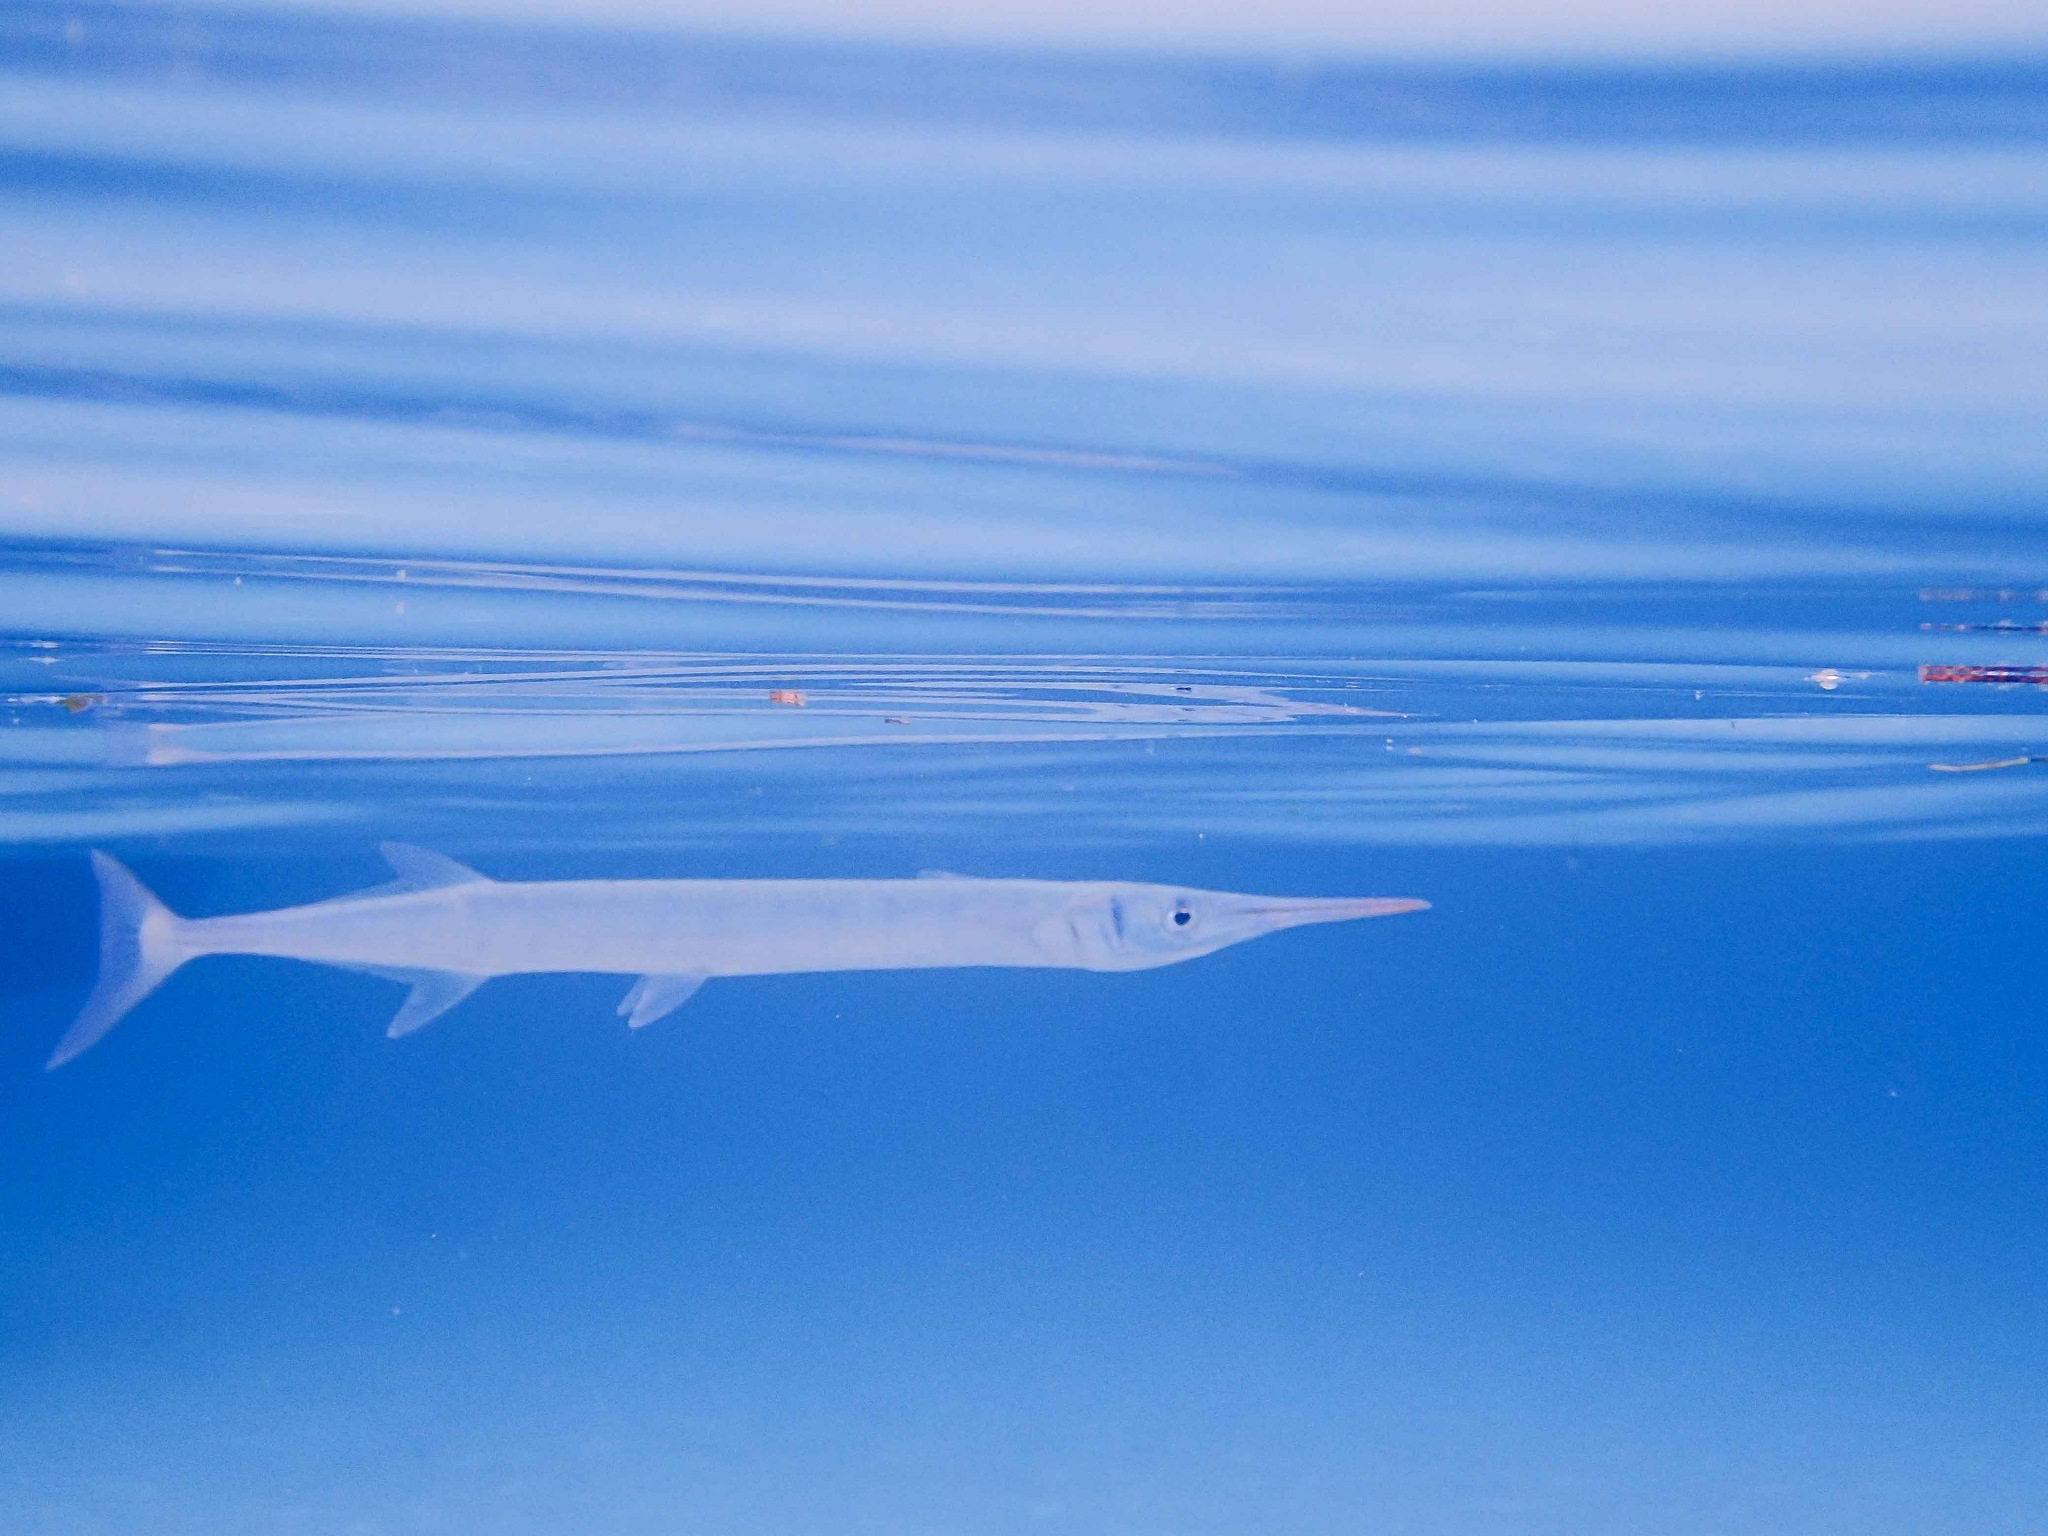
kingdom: Animalia
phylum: Chordata
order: Beloniformes
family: Belonidae
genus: Tylosurus
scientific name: Tylosurus crocodilus
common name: Houndfish
